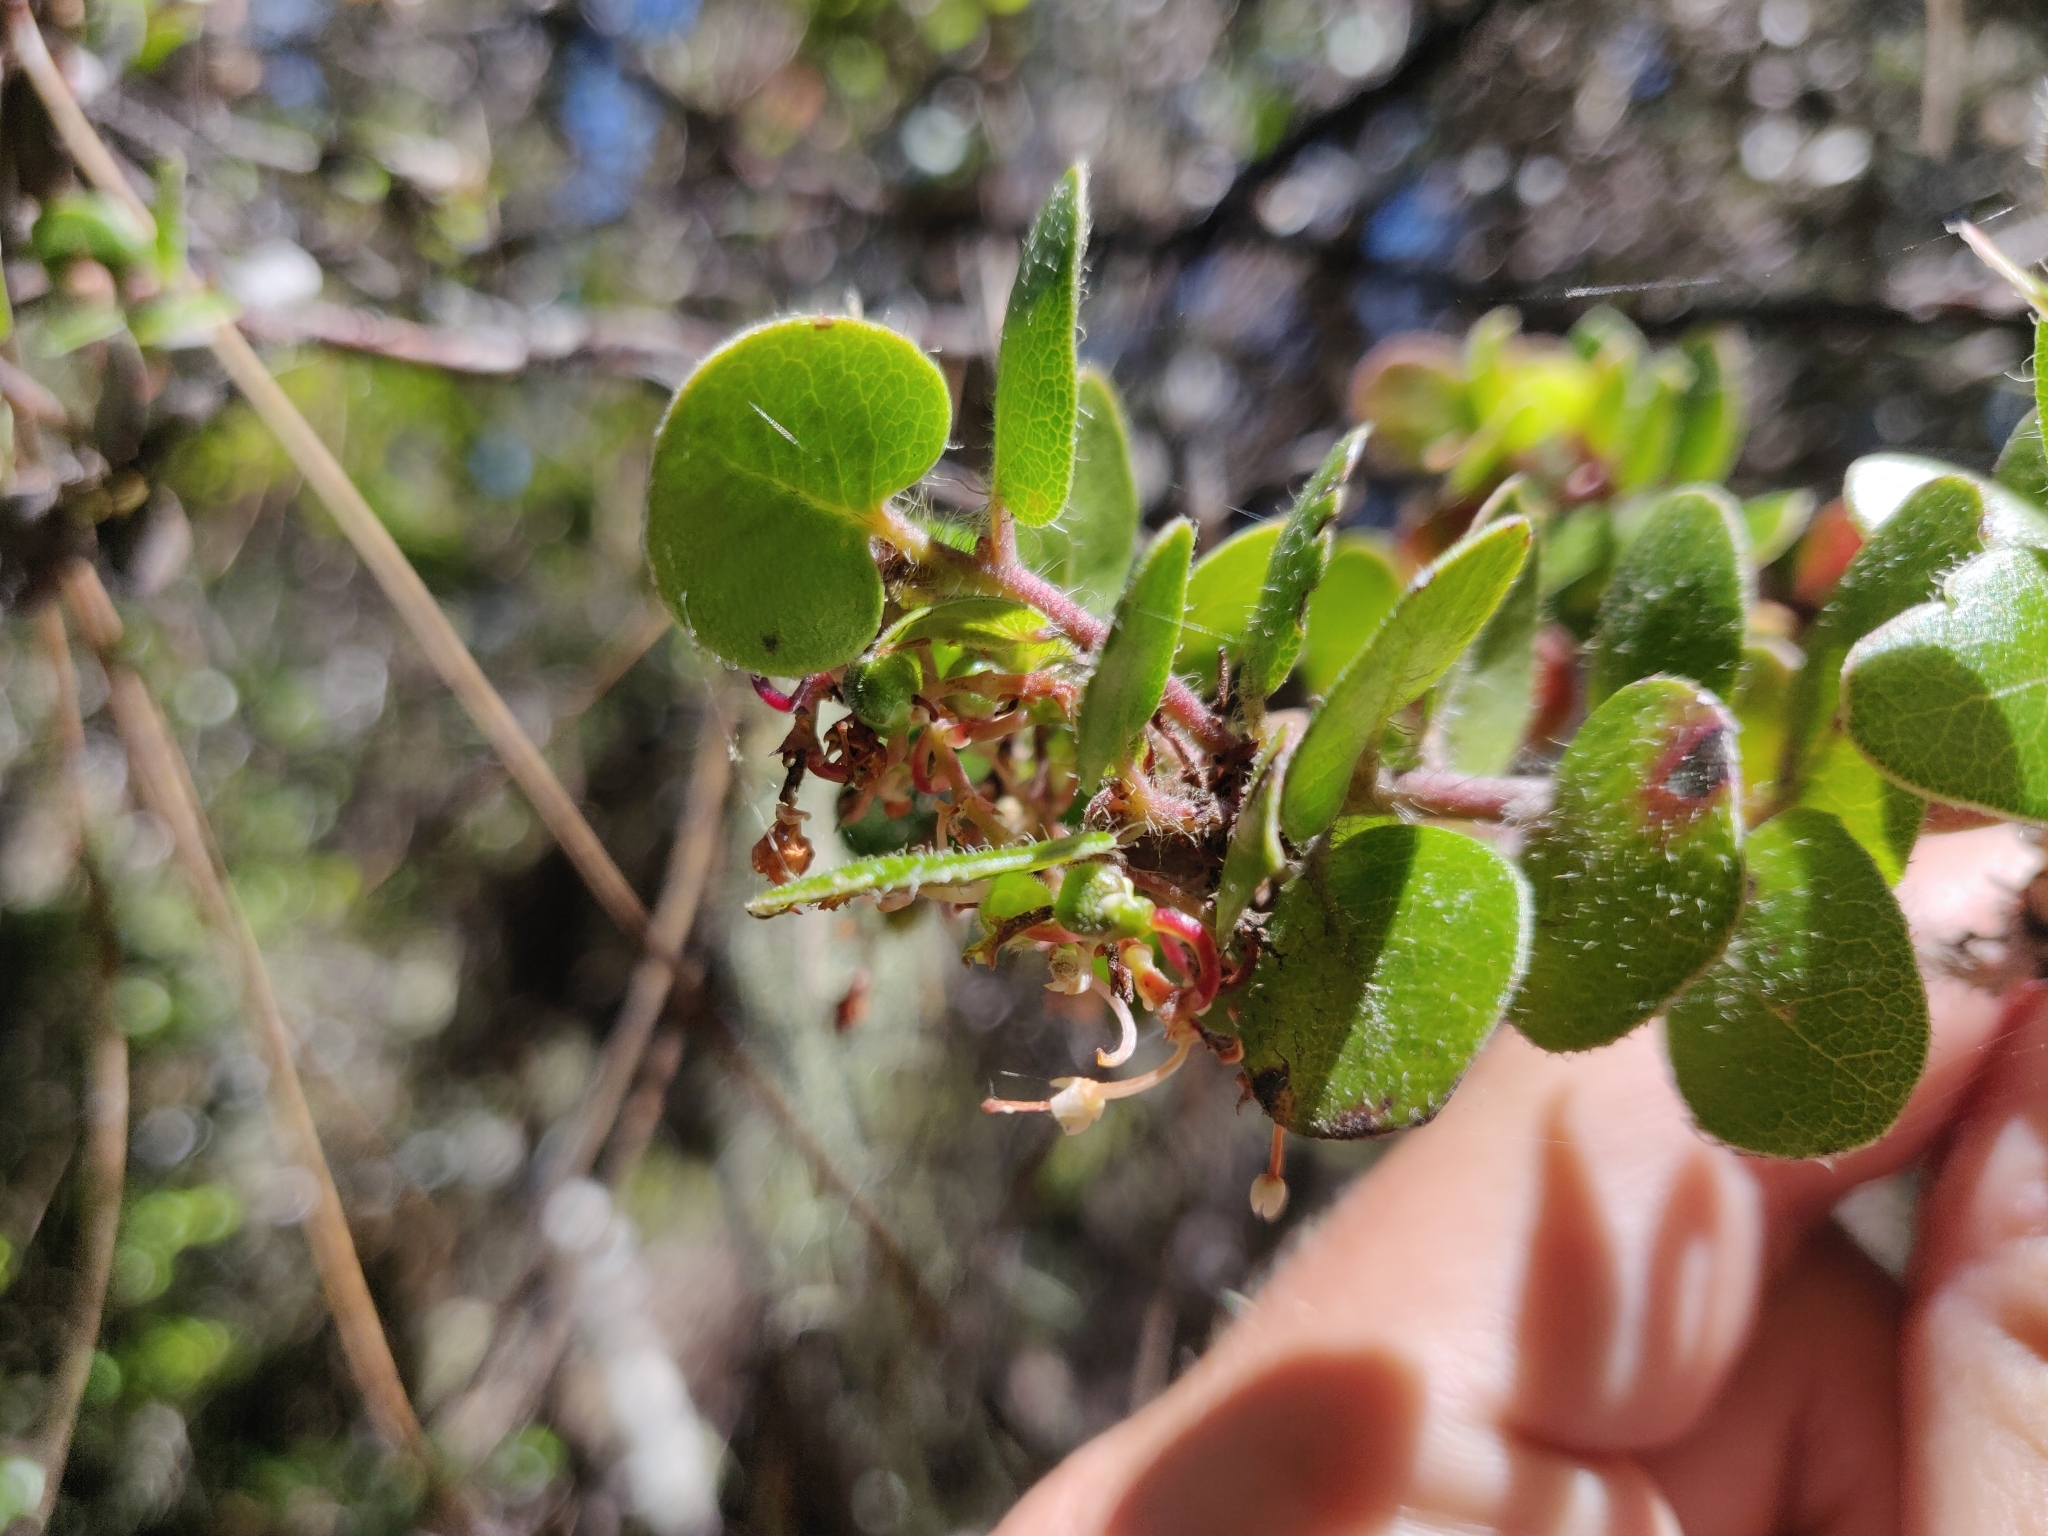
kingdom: Plantae
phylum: Tracheophyta
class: Magnoliopsida
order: Ericales
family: Ericaceae
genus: Arctostaphylos
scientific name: Arctostaphylos nummularia
